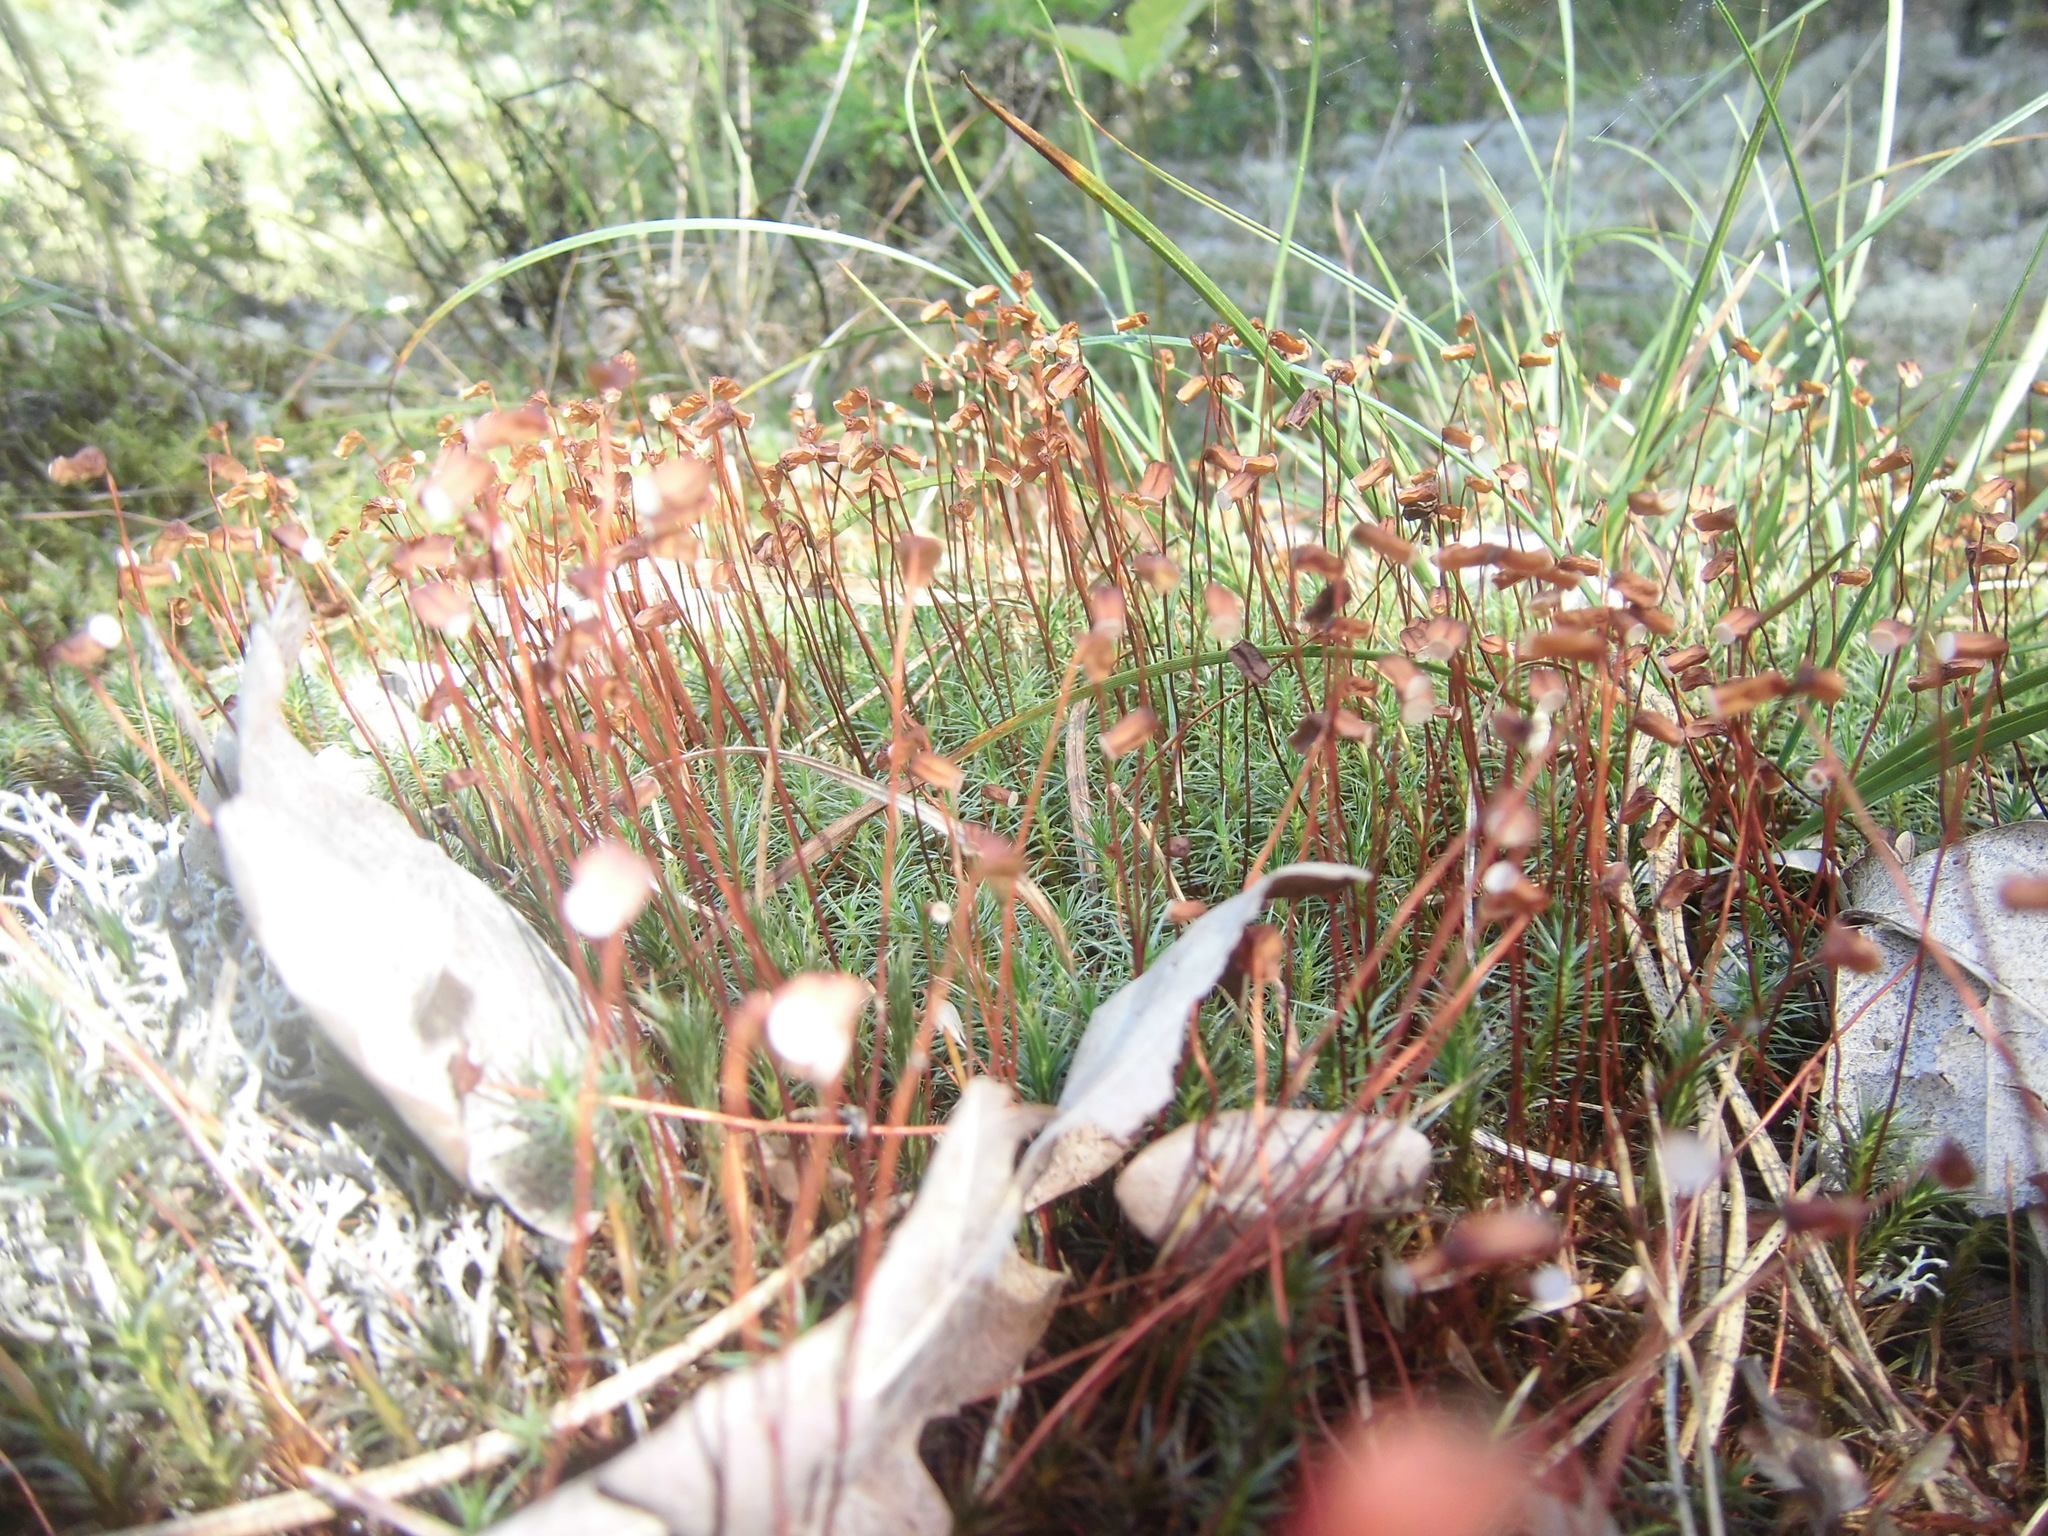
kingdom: Plantae
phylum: Bryophyta
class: Polytrichopsida
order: Polytrichales
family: Polytrichaceae
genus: Polytrichum
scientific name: Polytrichum commune
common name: Common haircap
